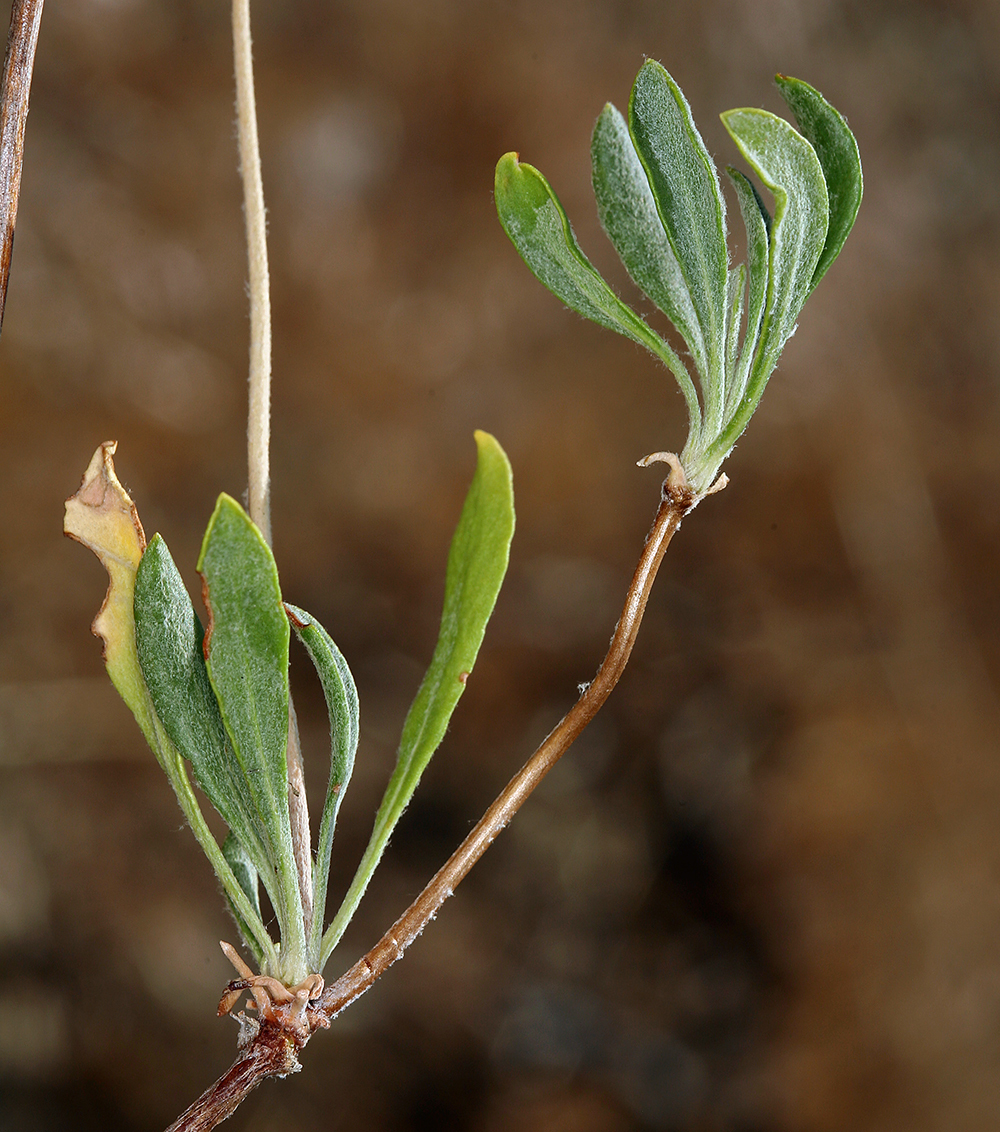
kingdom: Plantae
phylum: Tracheophyta
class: Magnoliopsida
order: Caryophyllales
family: Polygonaceae
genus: Eriogonum
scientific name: Eriogonum umbellatum
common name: Sulfur-buckwheat
